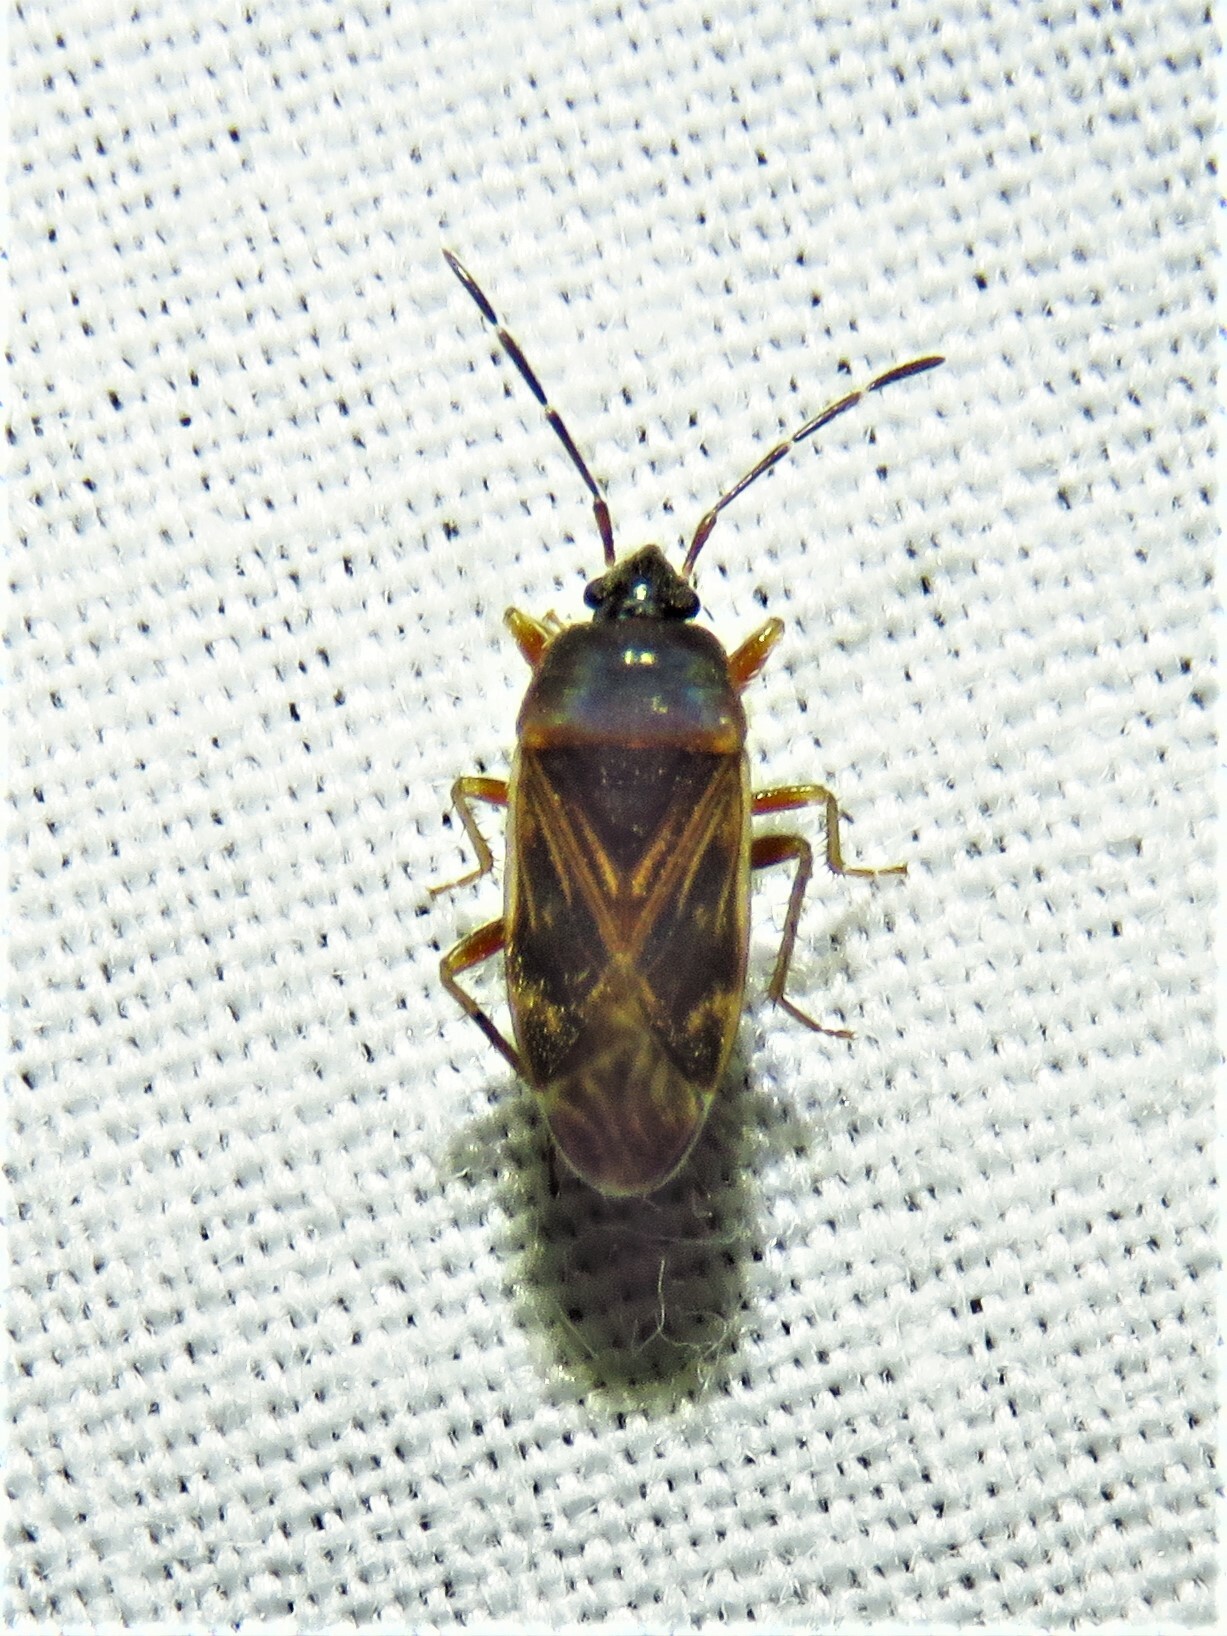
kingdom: Animalia
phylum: Arthropoda
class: Insecta
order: Hemiptera
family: Rhyparochromidae
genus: Paragonatas
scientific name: Paragonatas divergens
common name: Seed bug
